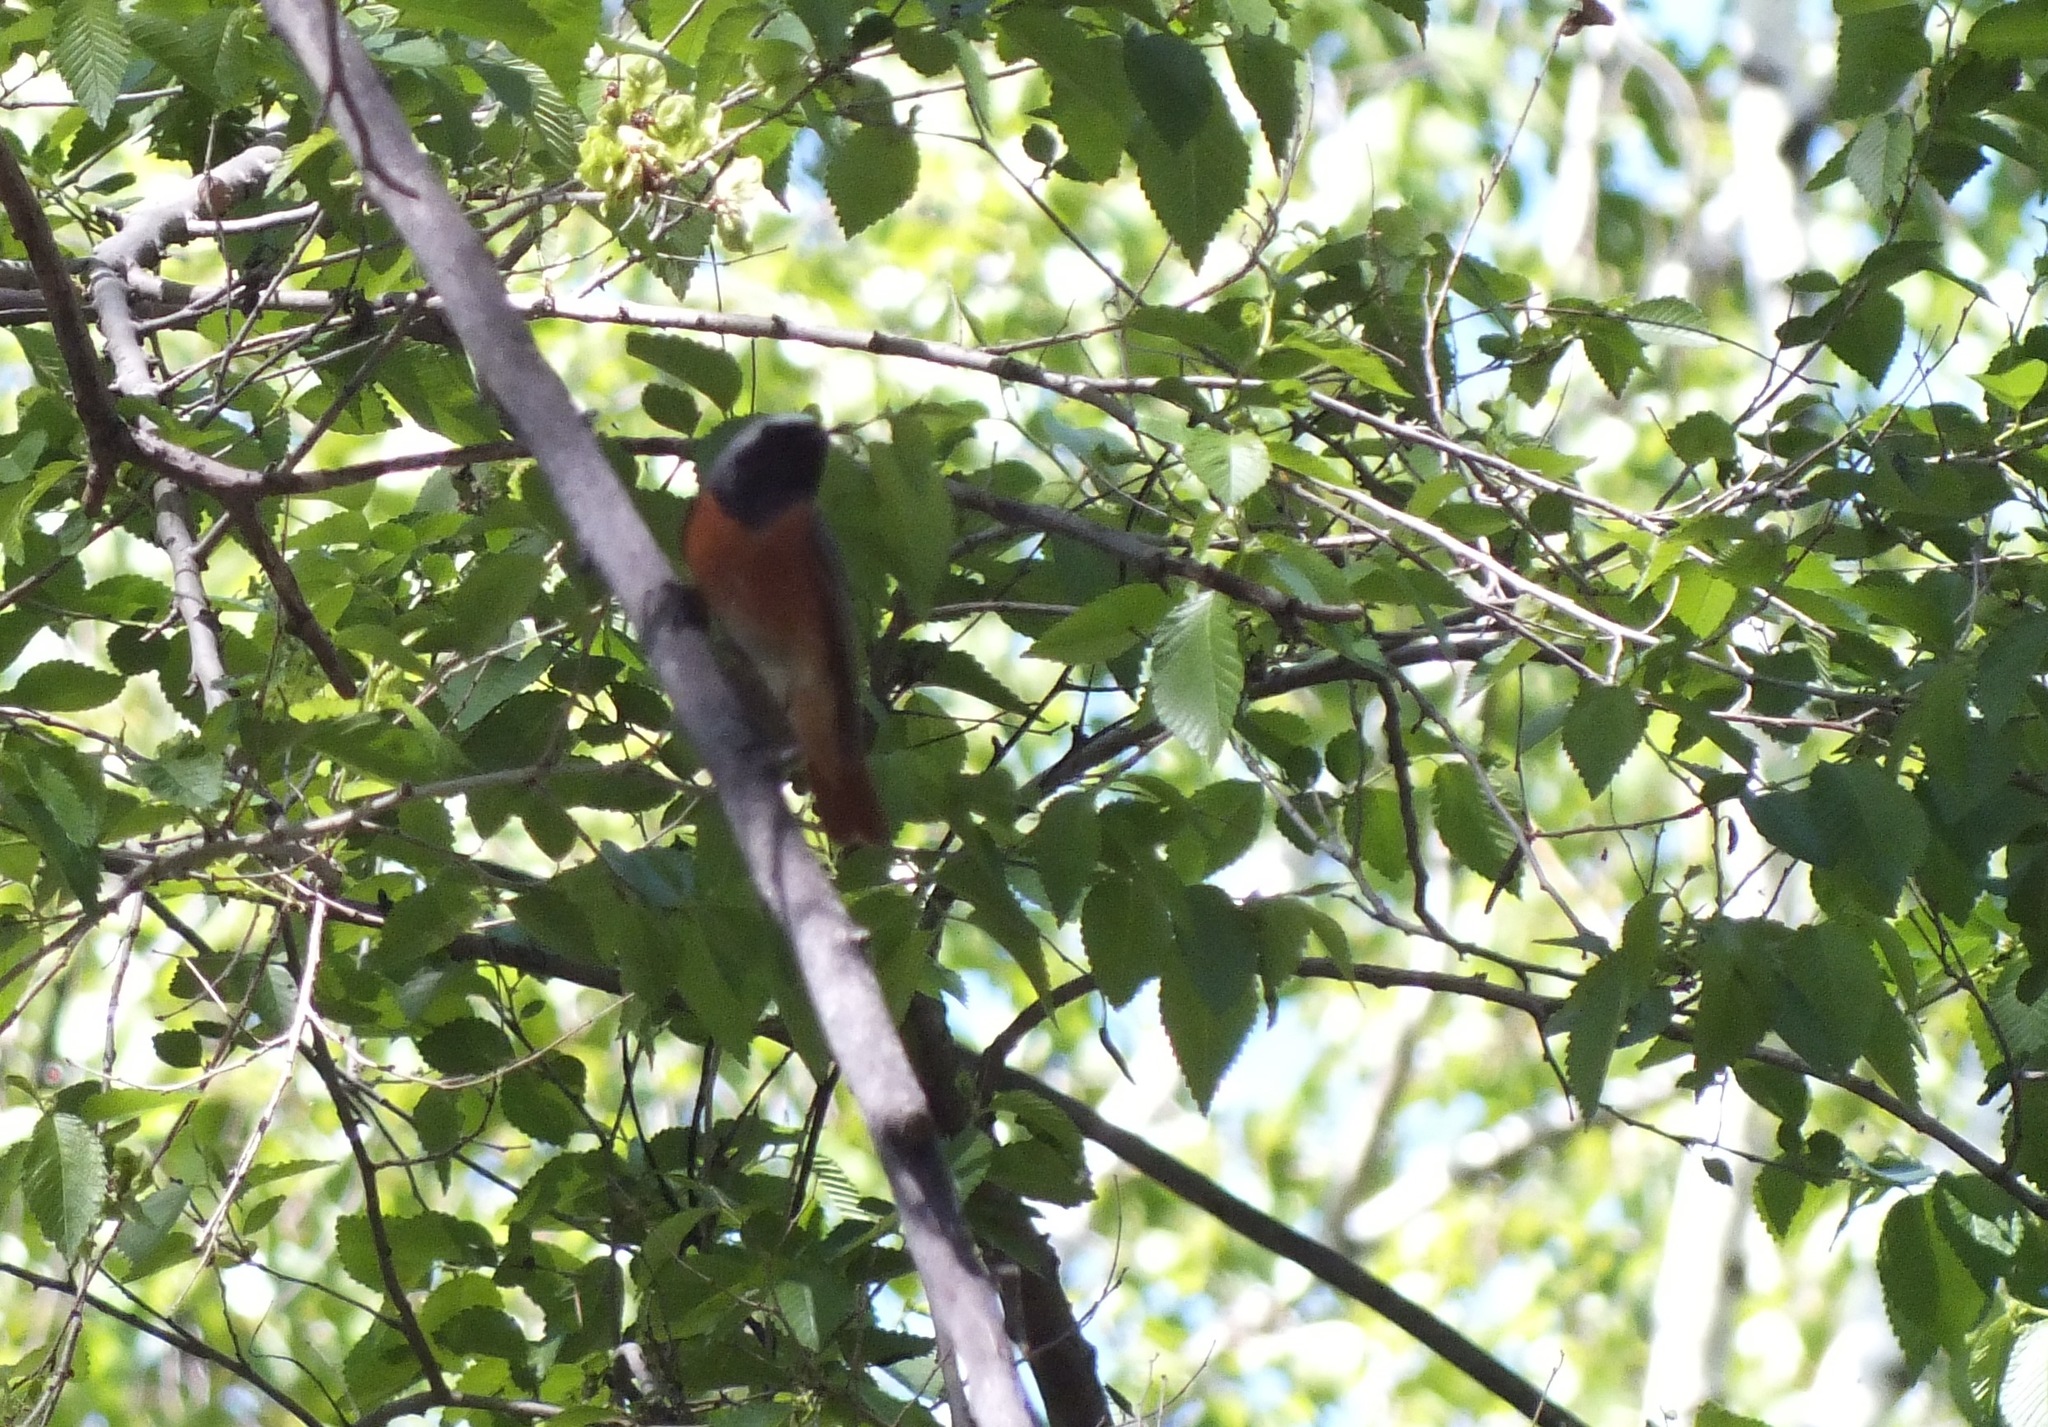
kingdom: Animalia
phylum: Chordata
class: Aves
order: Passeriformes
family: Muscicapidae
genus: Phoenicurus
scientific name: Phoenicurus phoenicurus
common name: Common redstart
